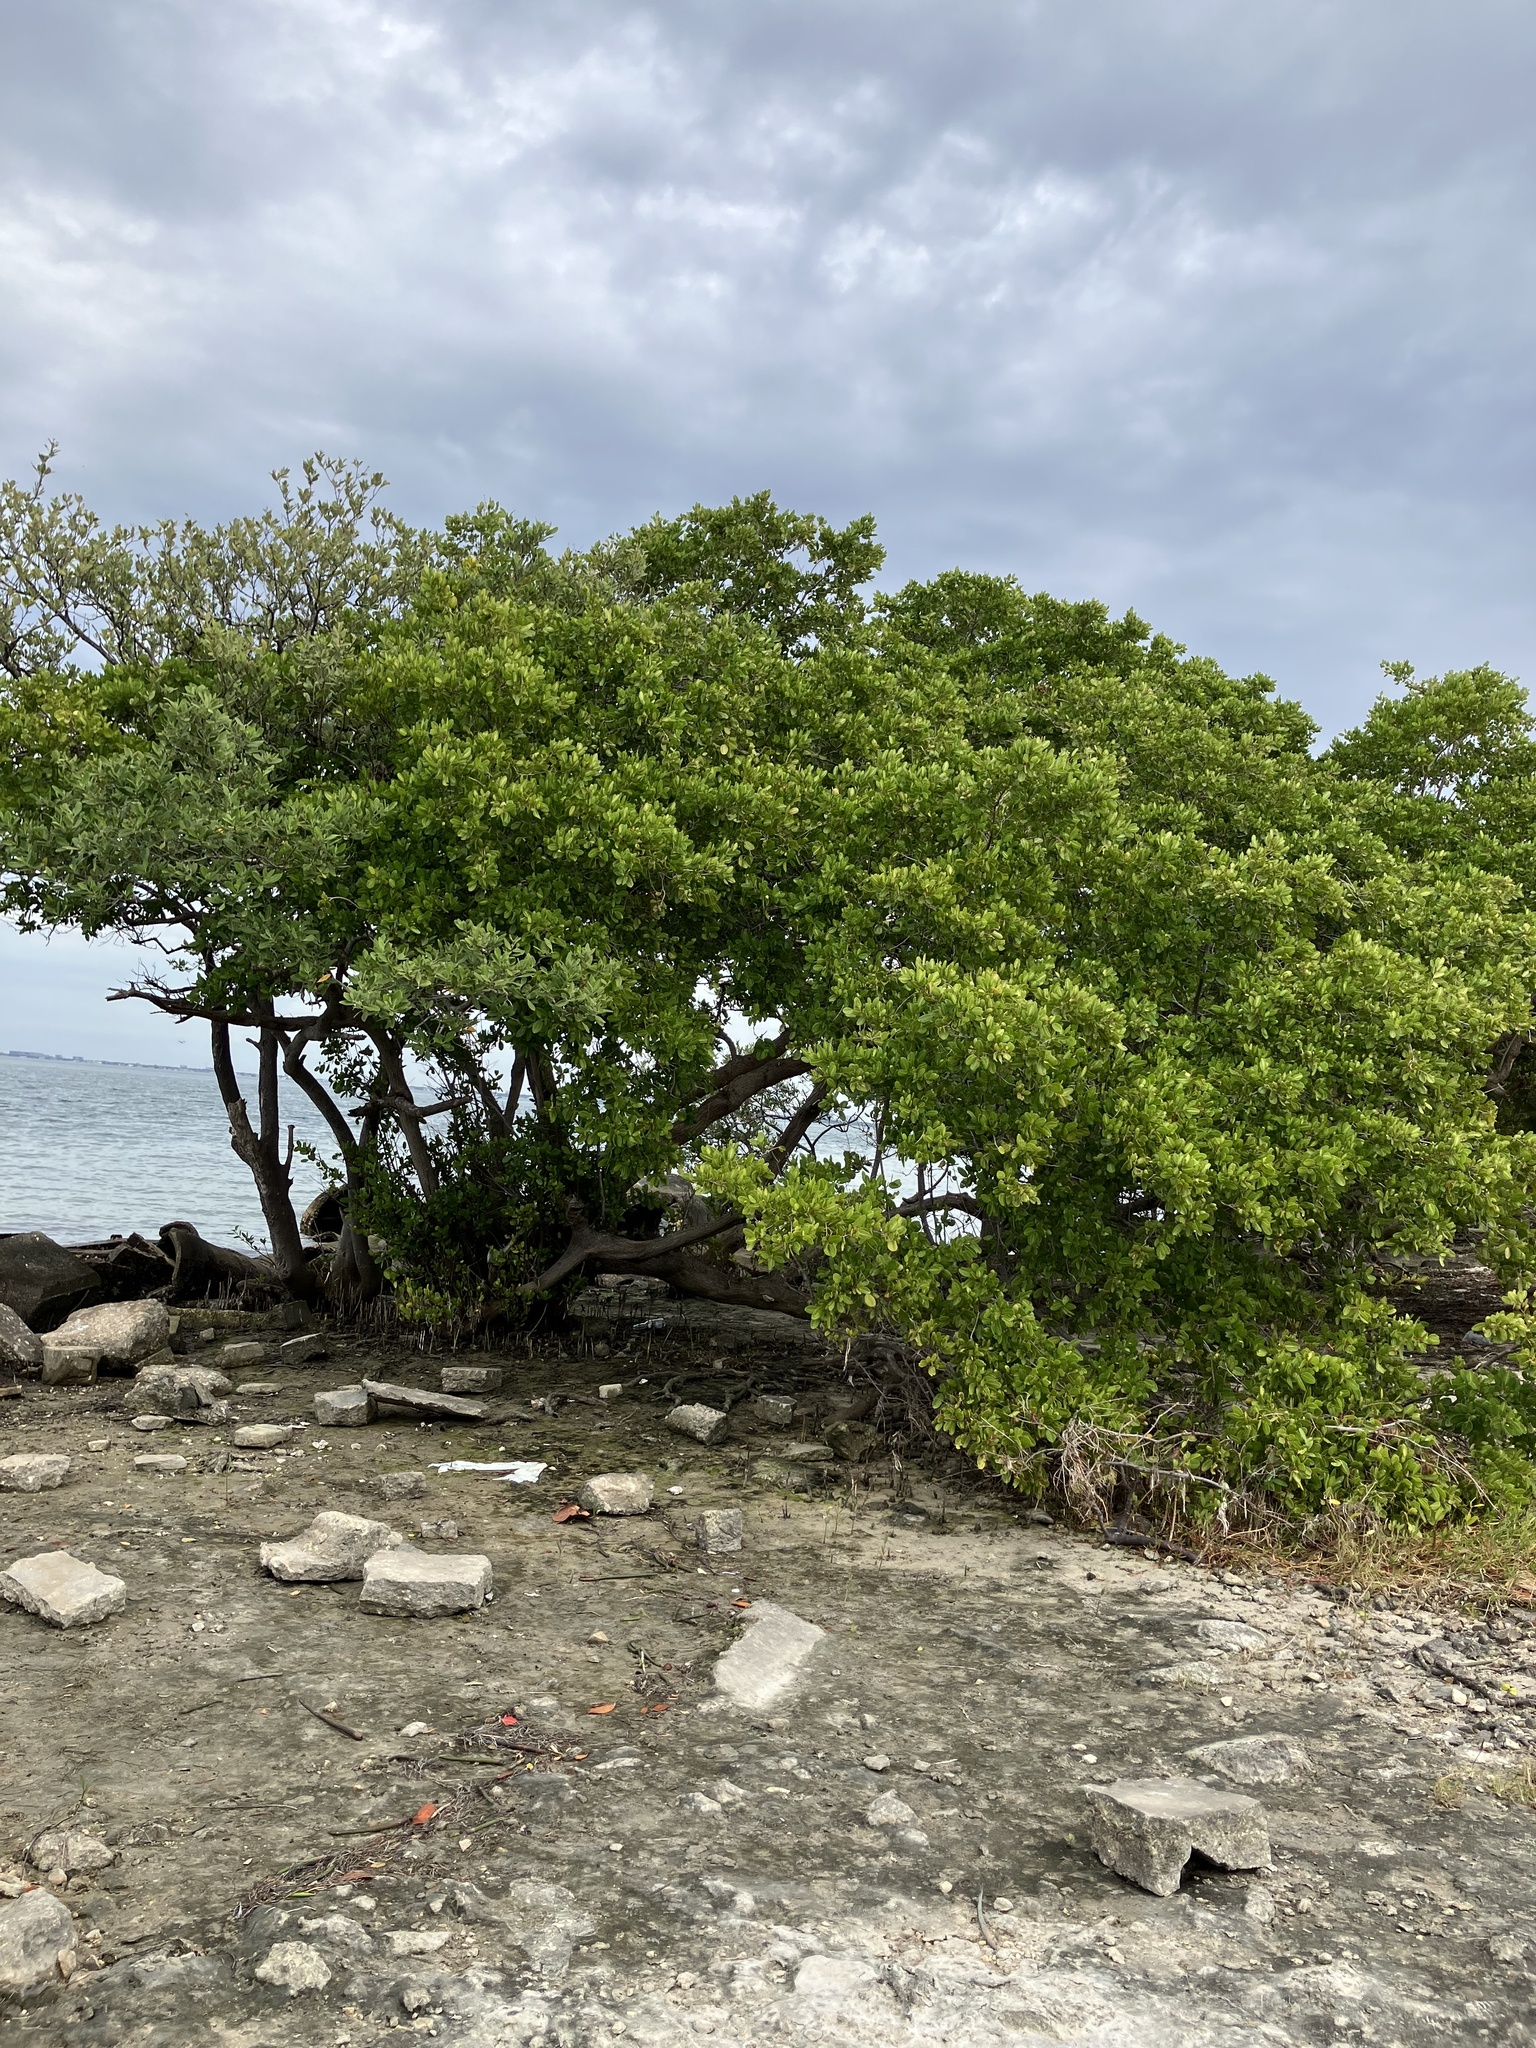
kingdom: Plantae
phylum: Tracheophyta
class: Magnoliopsida
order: Myrtales
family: Combretaceae
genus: Laguncularia
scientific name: Laguncularia racemosa
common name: White mangrove
